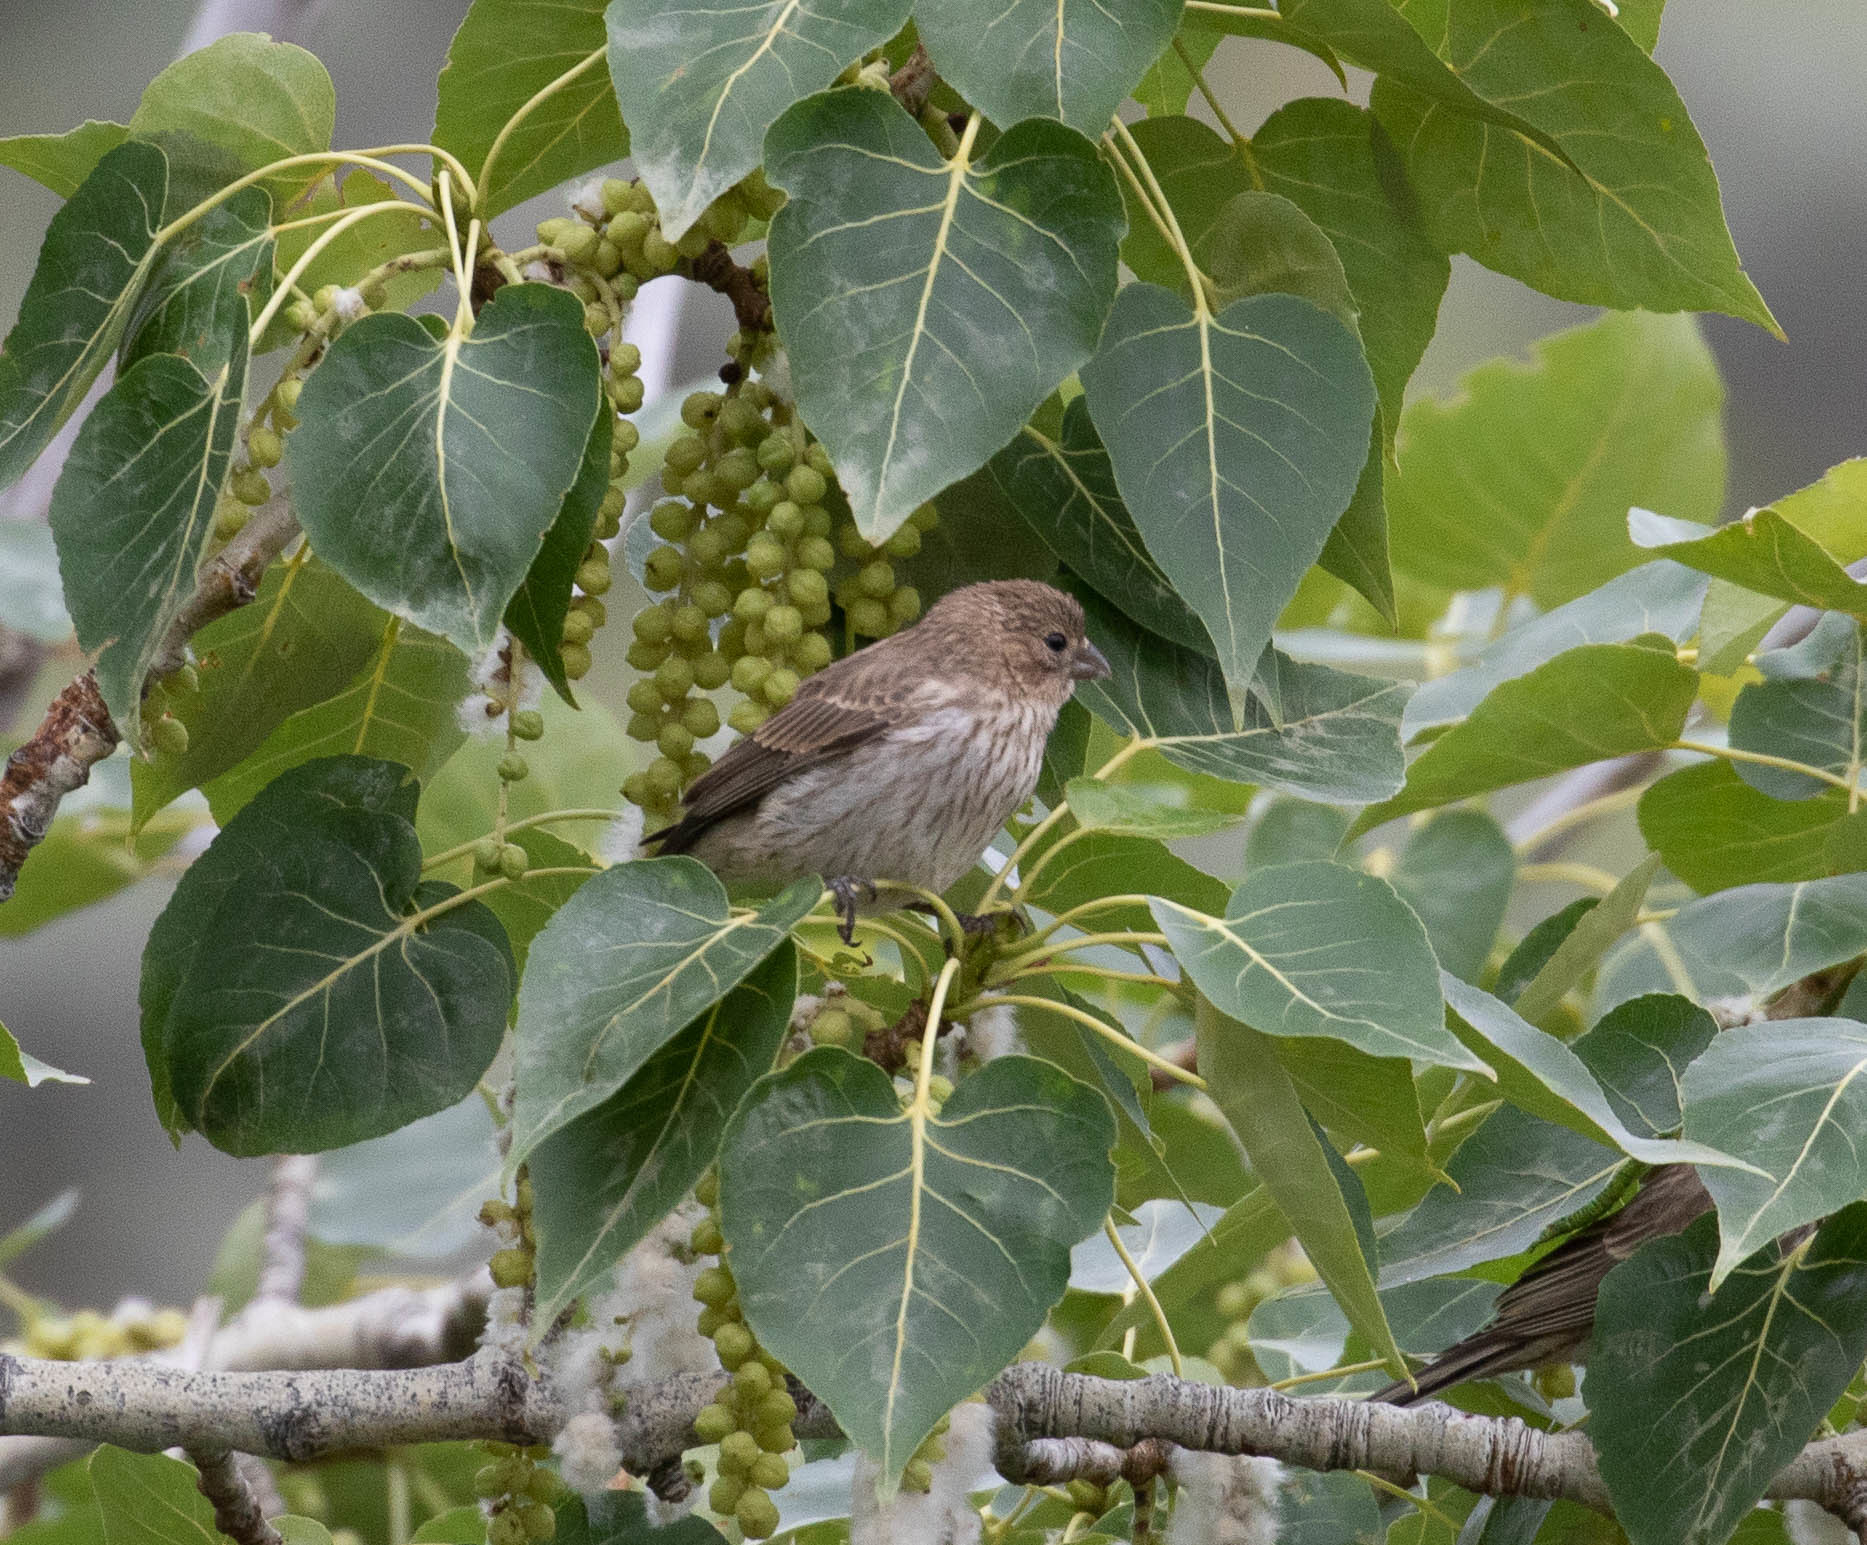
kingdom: Animalia
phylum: Chordata
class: Aves
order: Passeriformes
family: Fringillidae
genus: Haemorhous
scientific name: Haemorhous mexicanus
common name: House finch
